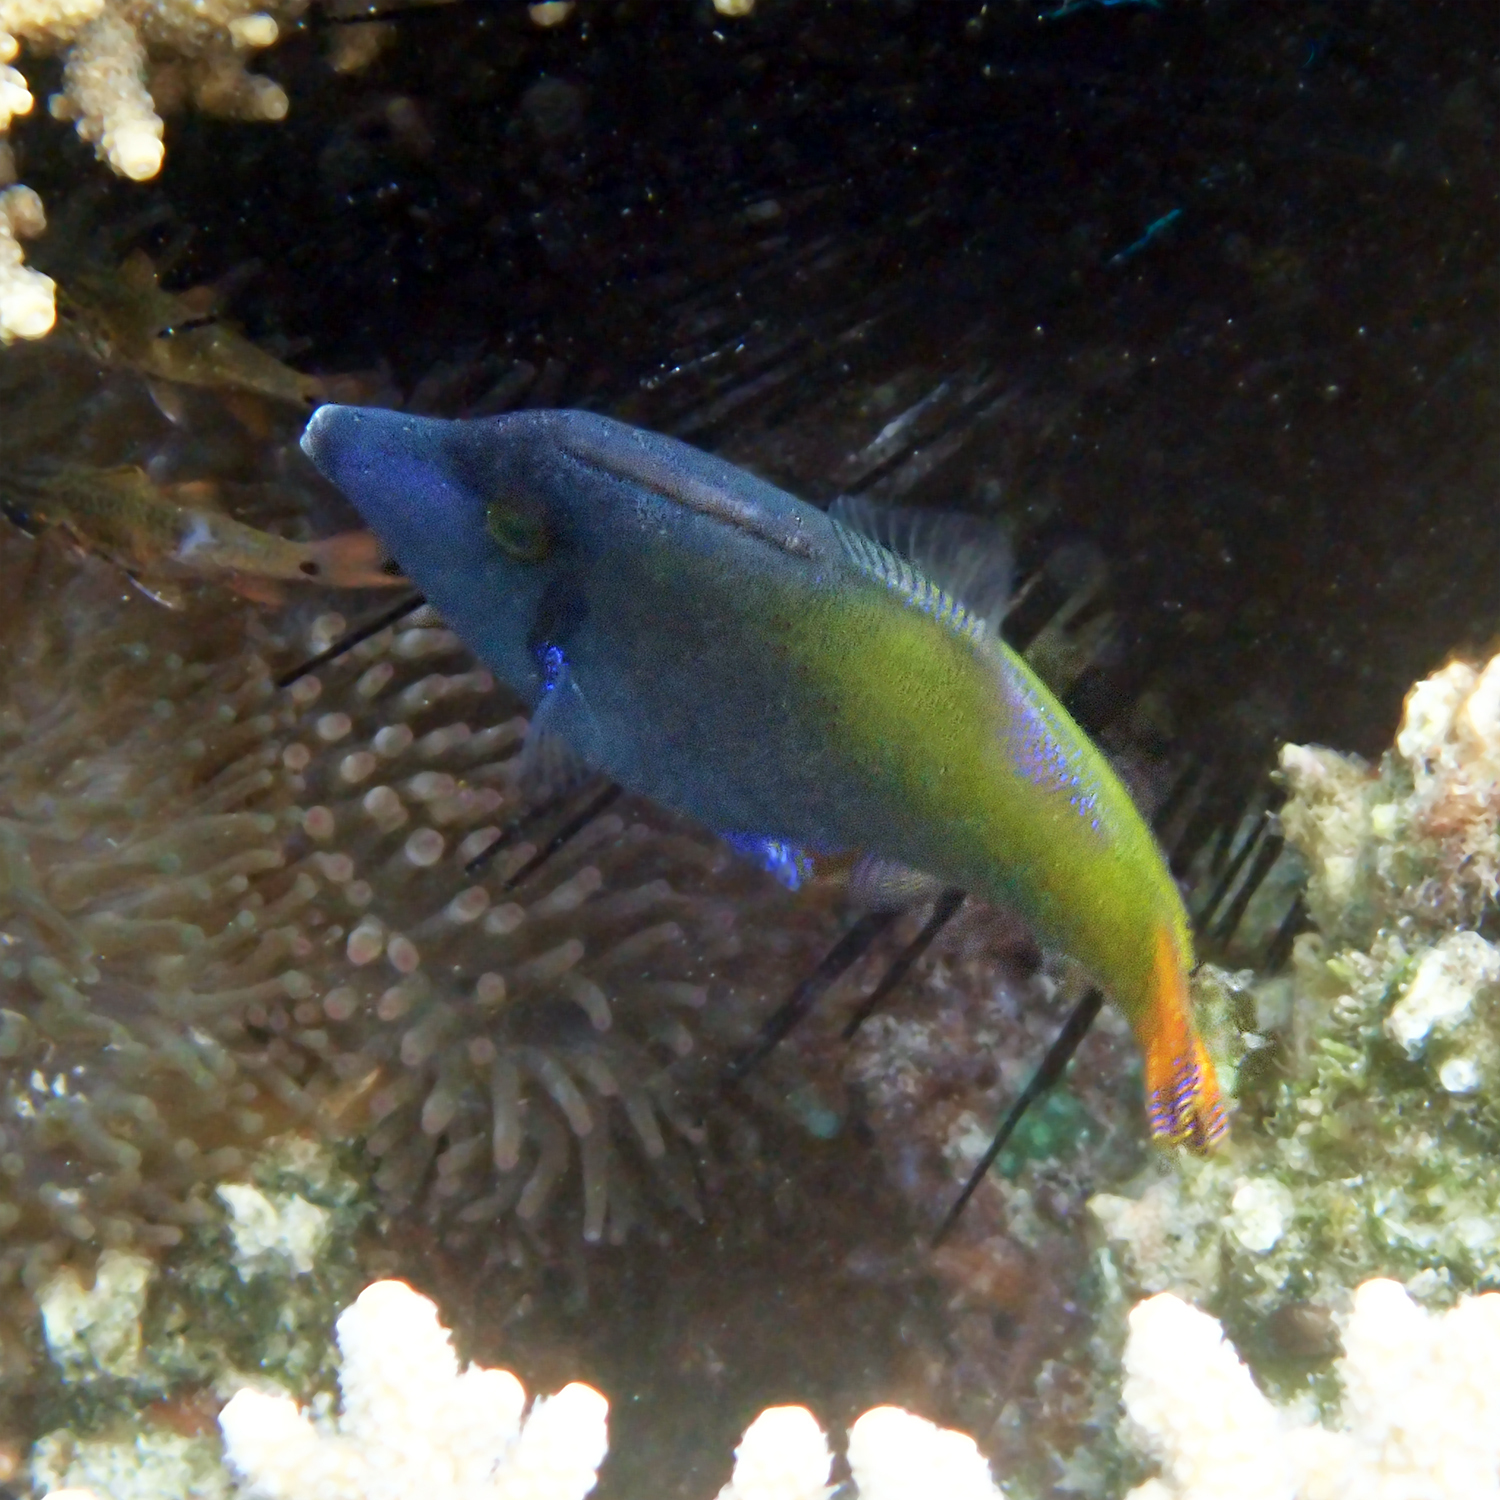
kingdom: Animalia
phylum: Chordata
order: Tetraodontiformes
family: Monacanthidae
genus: Pervagor
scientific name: Pervagor janthinosoma
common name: Blackbar filefish
